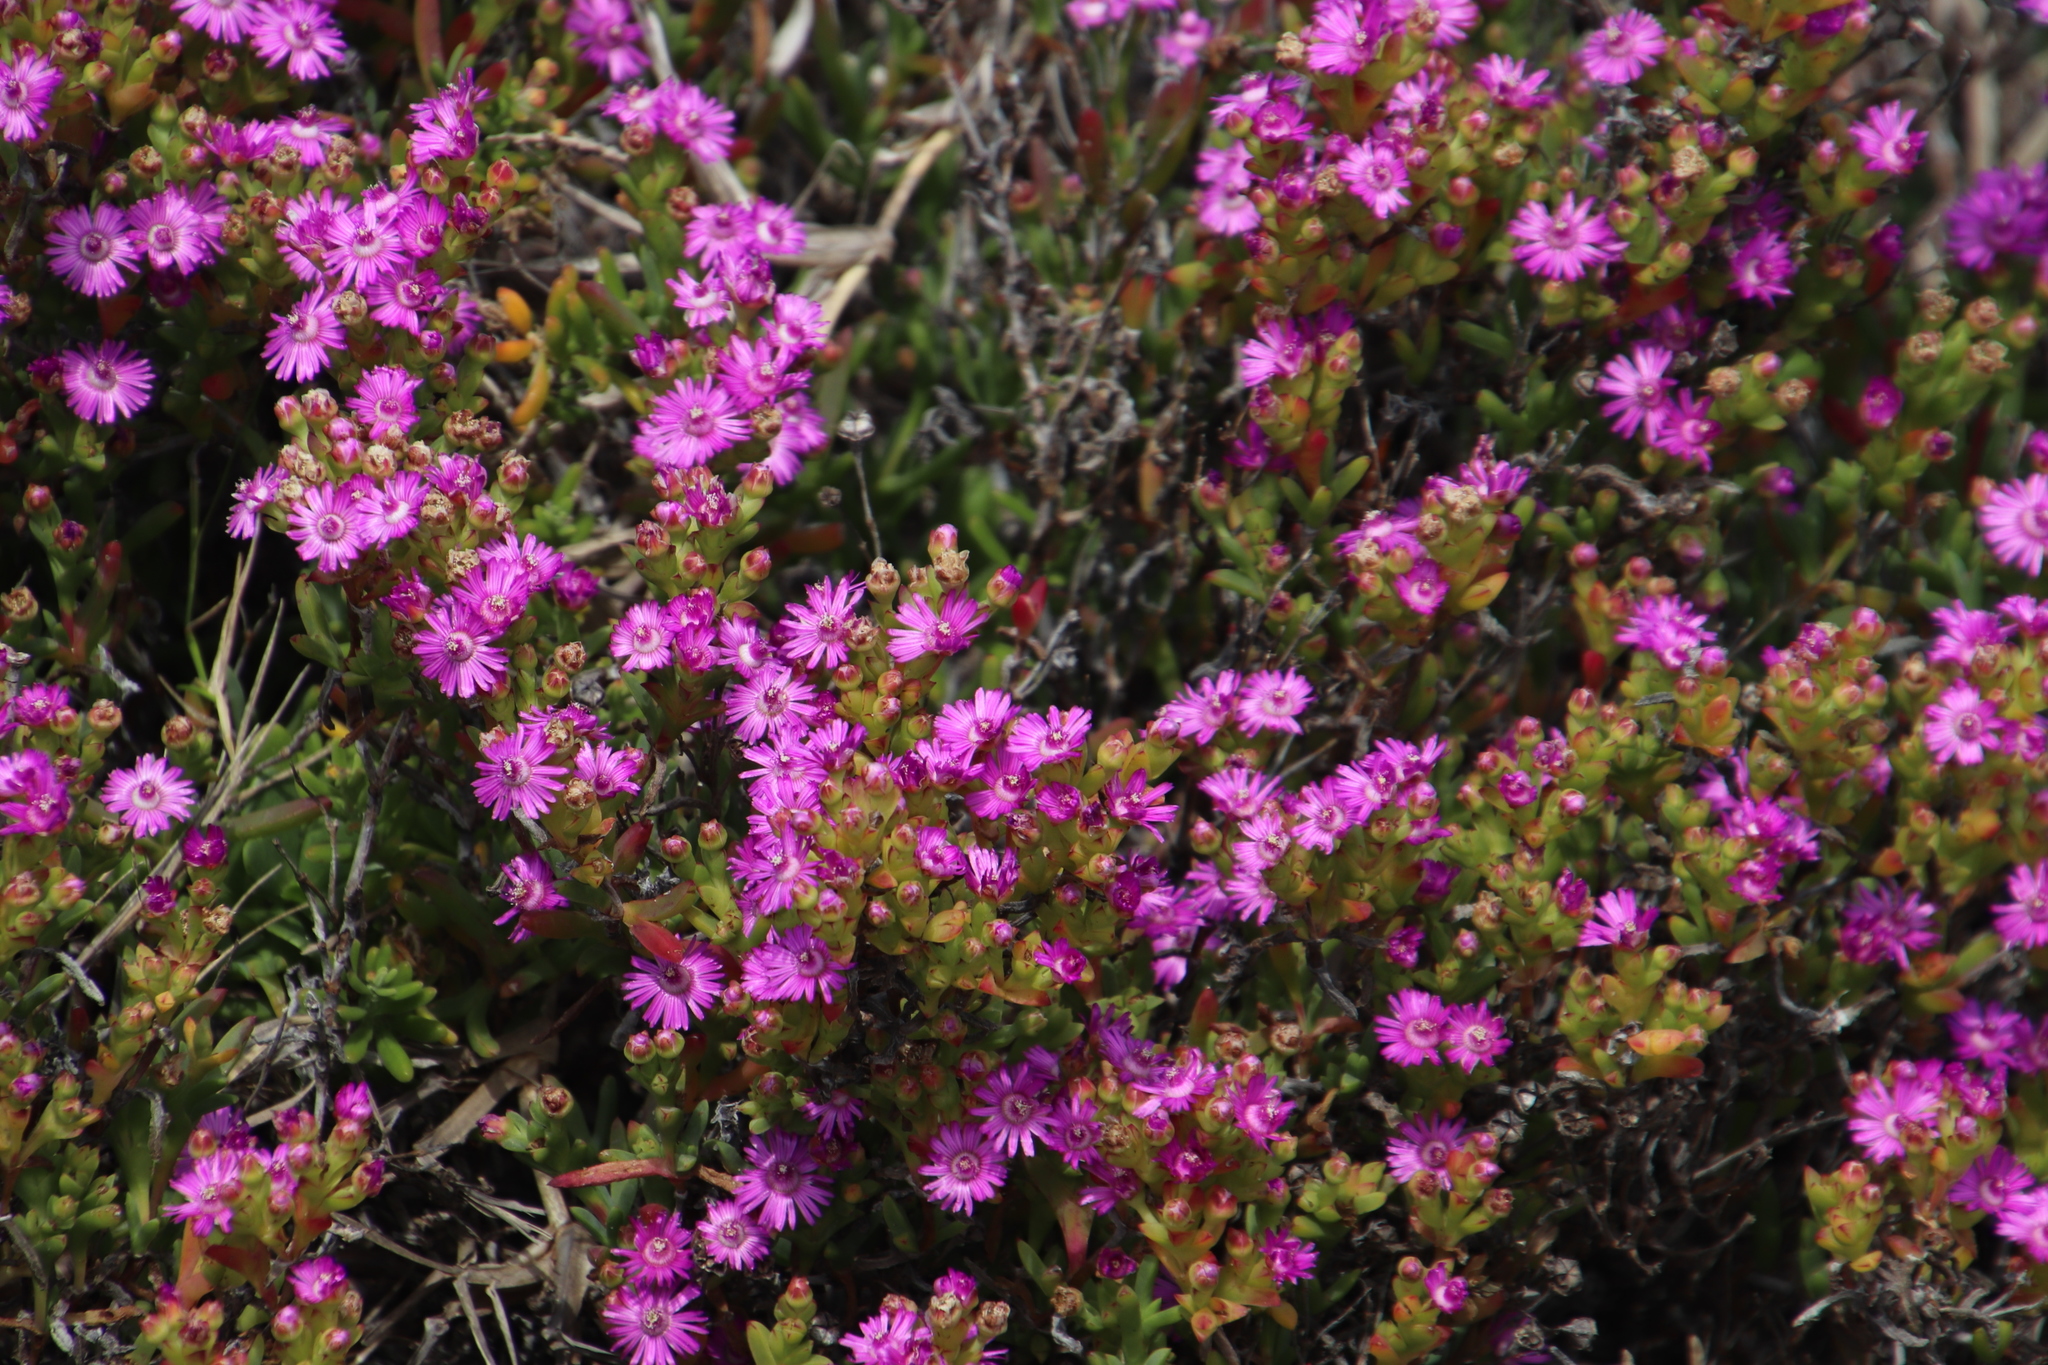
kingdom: Plantae
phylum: Tracheophyta
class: Magnoliopsida
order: Caryophyllales
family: Aizoaceae
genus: Ruschia
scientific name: Ruschia macowanii
